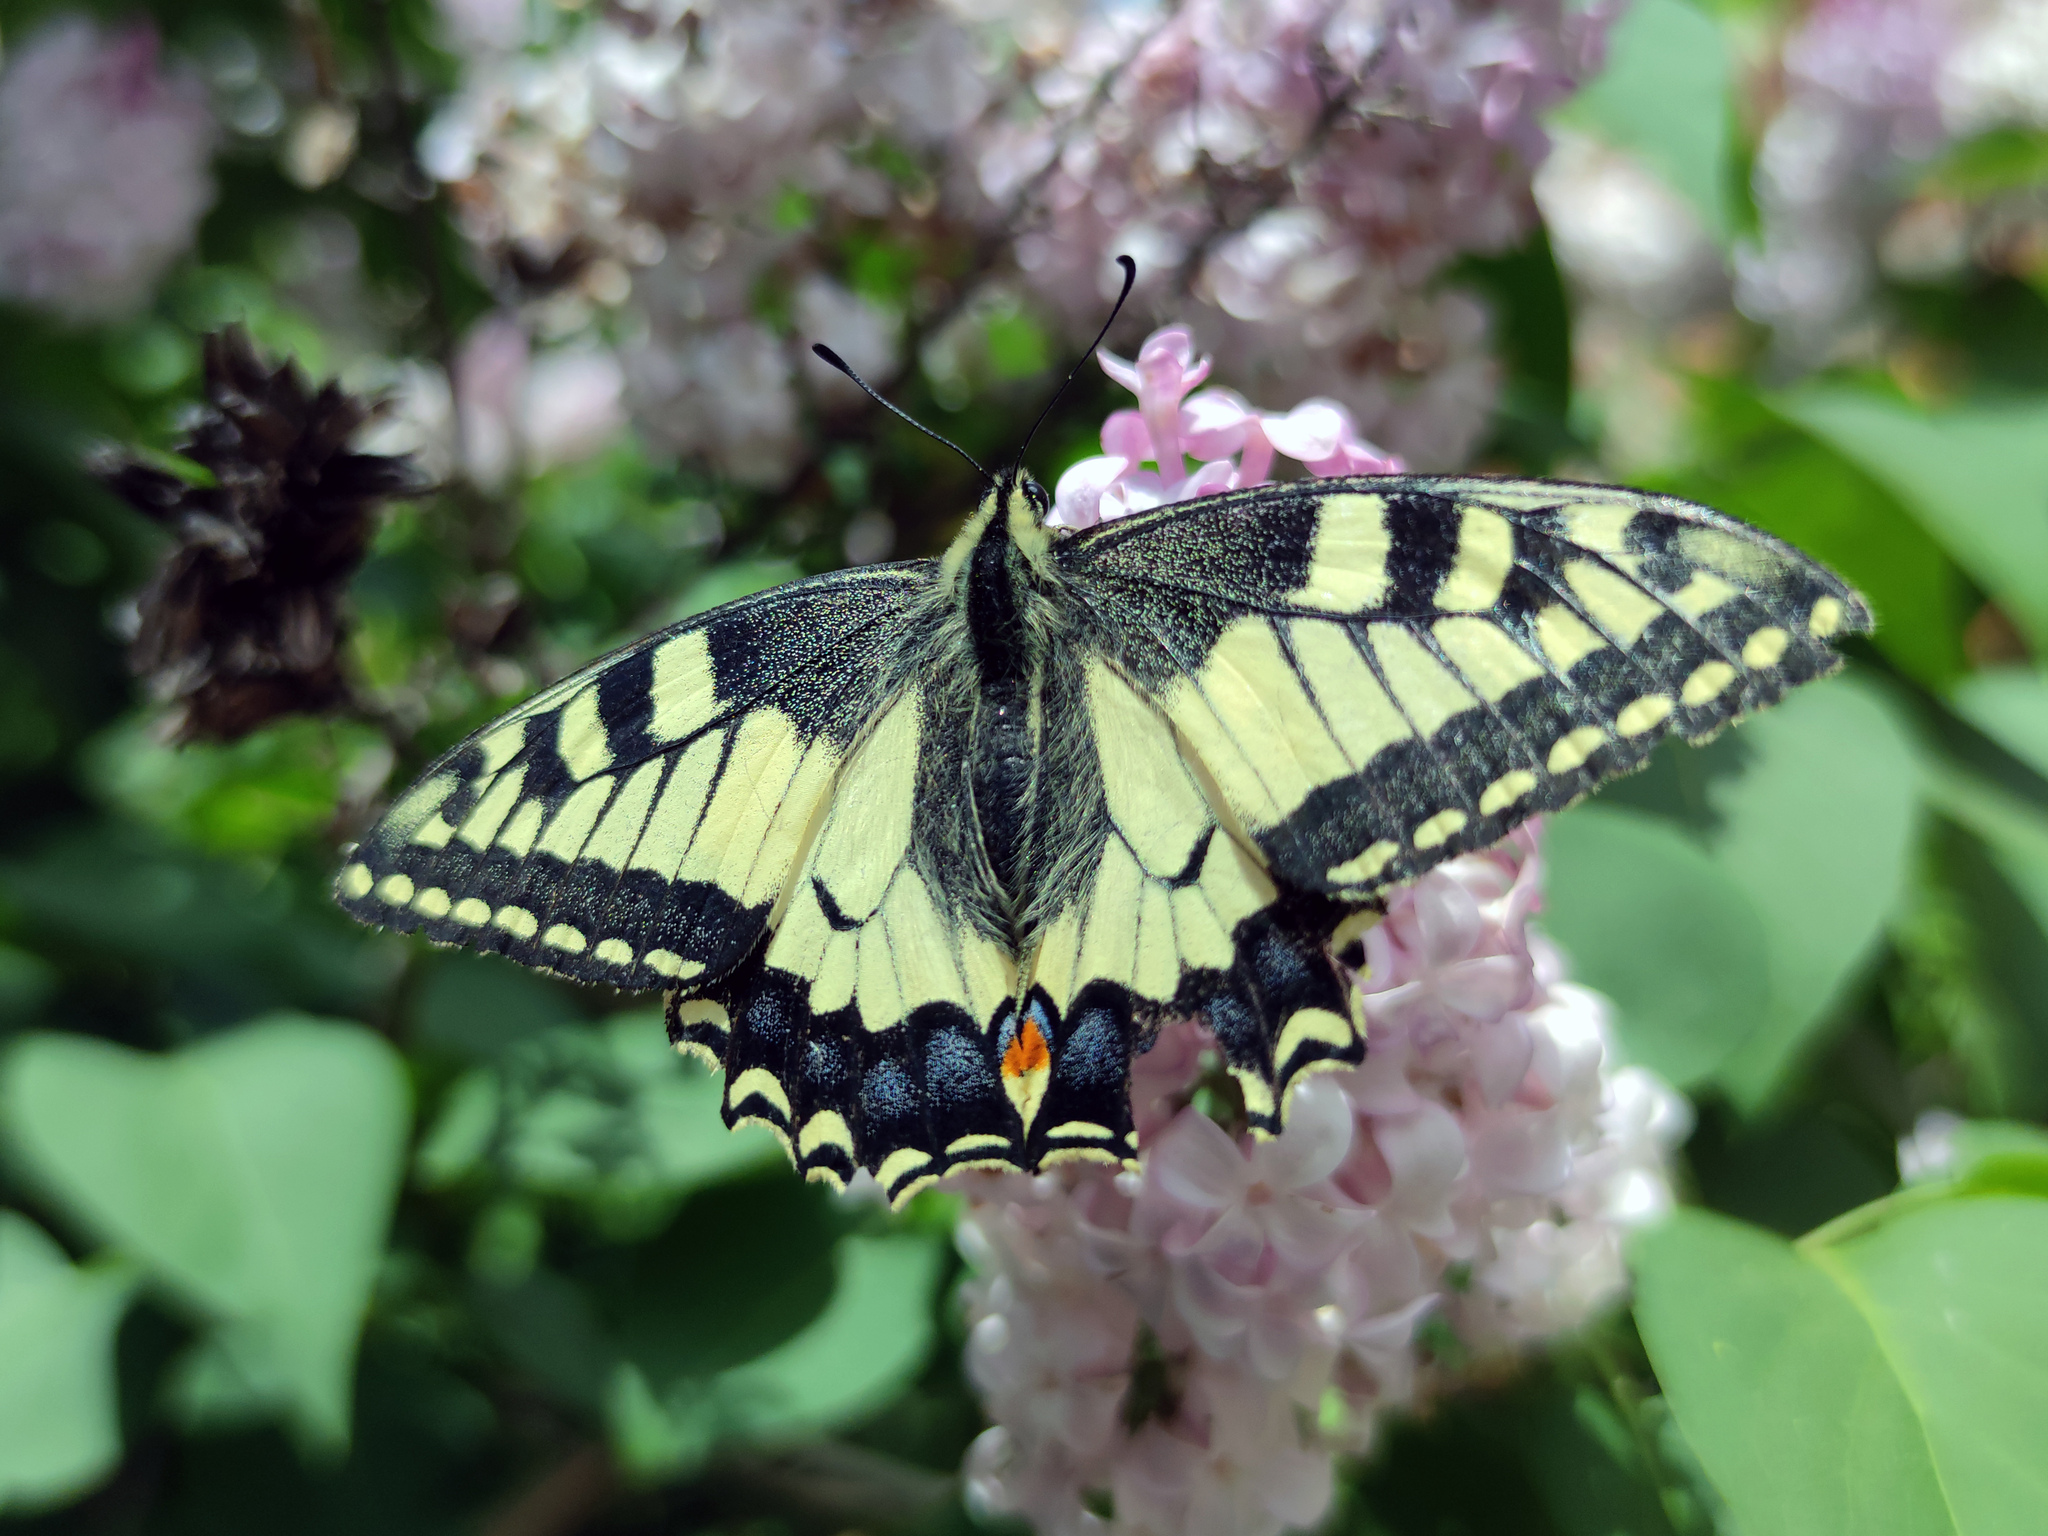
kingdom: Animalia
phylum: Arthropoda
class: Insecta
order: Lepidoptera
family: Papilionidae
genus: Papilio
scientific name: Papilio machaon
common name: Swallowtail
